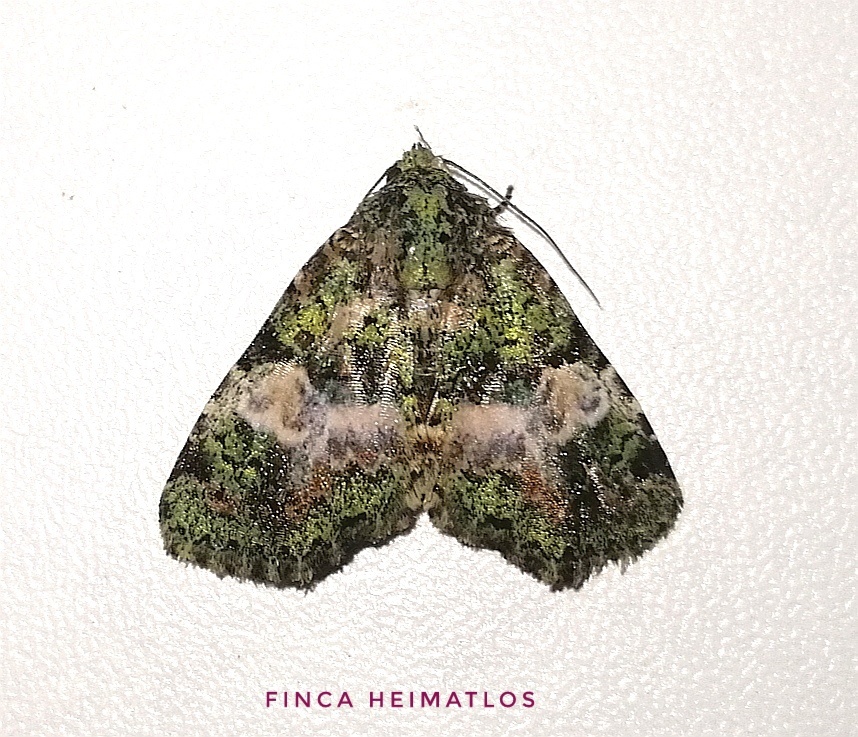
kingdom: Animalia
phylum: Arthropoda
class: Insecta
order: Lepidoptera
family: Erebidae
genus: Eudyops
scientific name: Eudyops fuscoviridis
